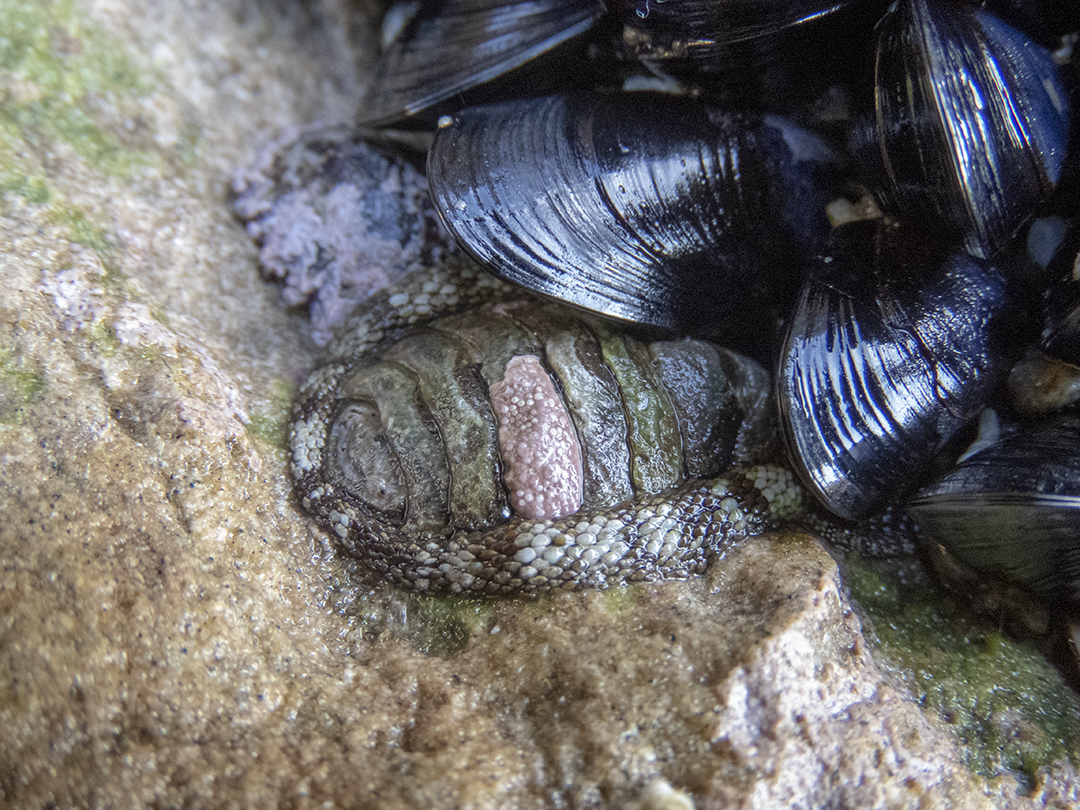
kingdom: Animalia
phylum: Mollusca
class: Polyplacophora
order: Chitonida
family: Chitonidae
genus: Sypharochiton
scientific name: Sypharochiton pelliserpentis
